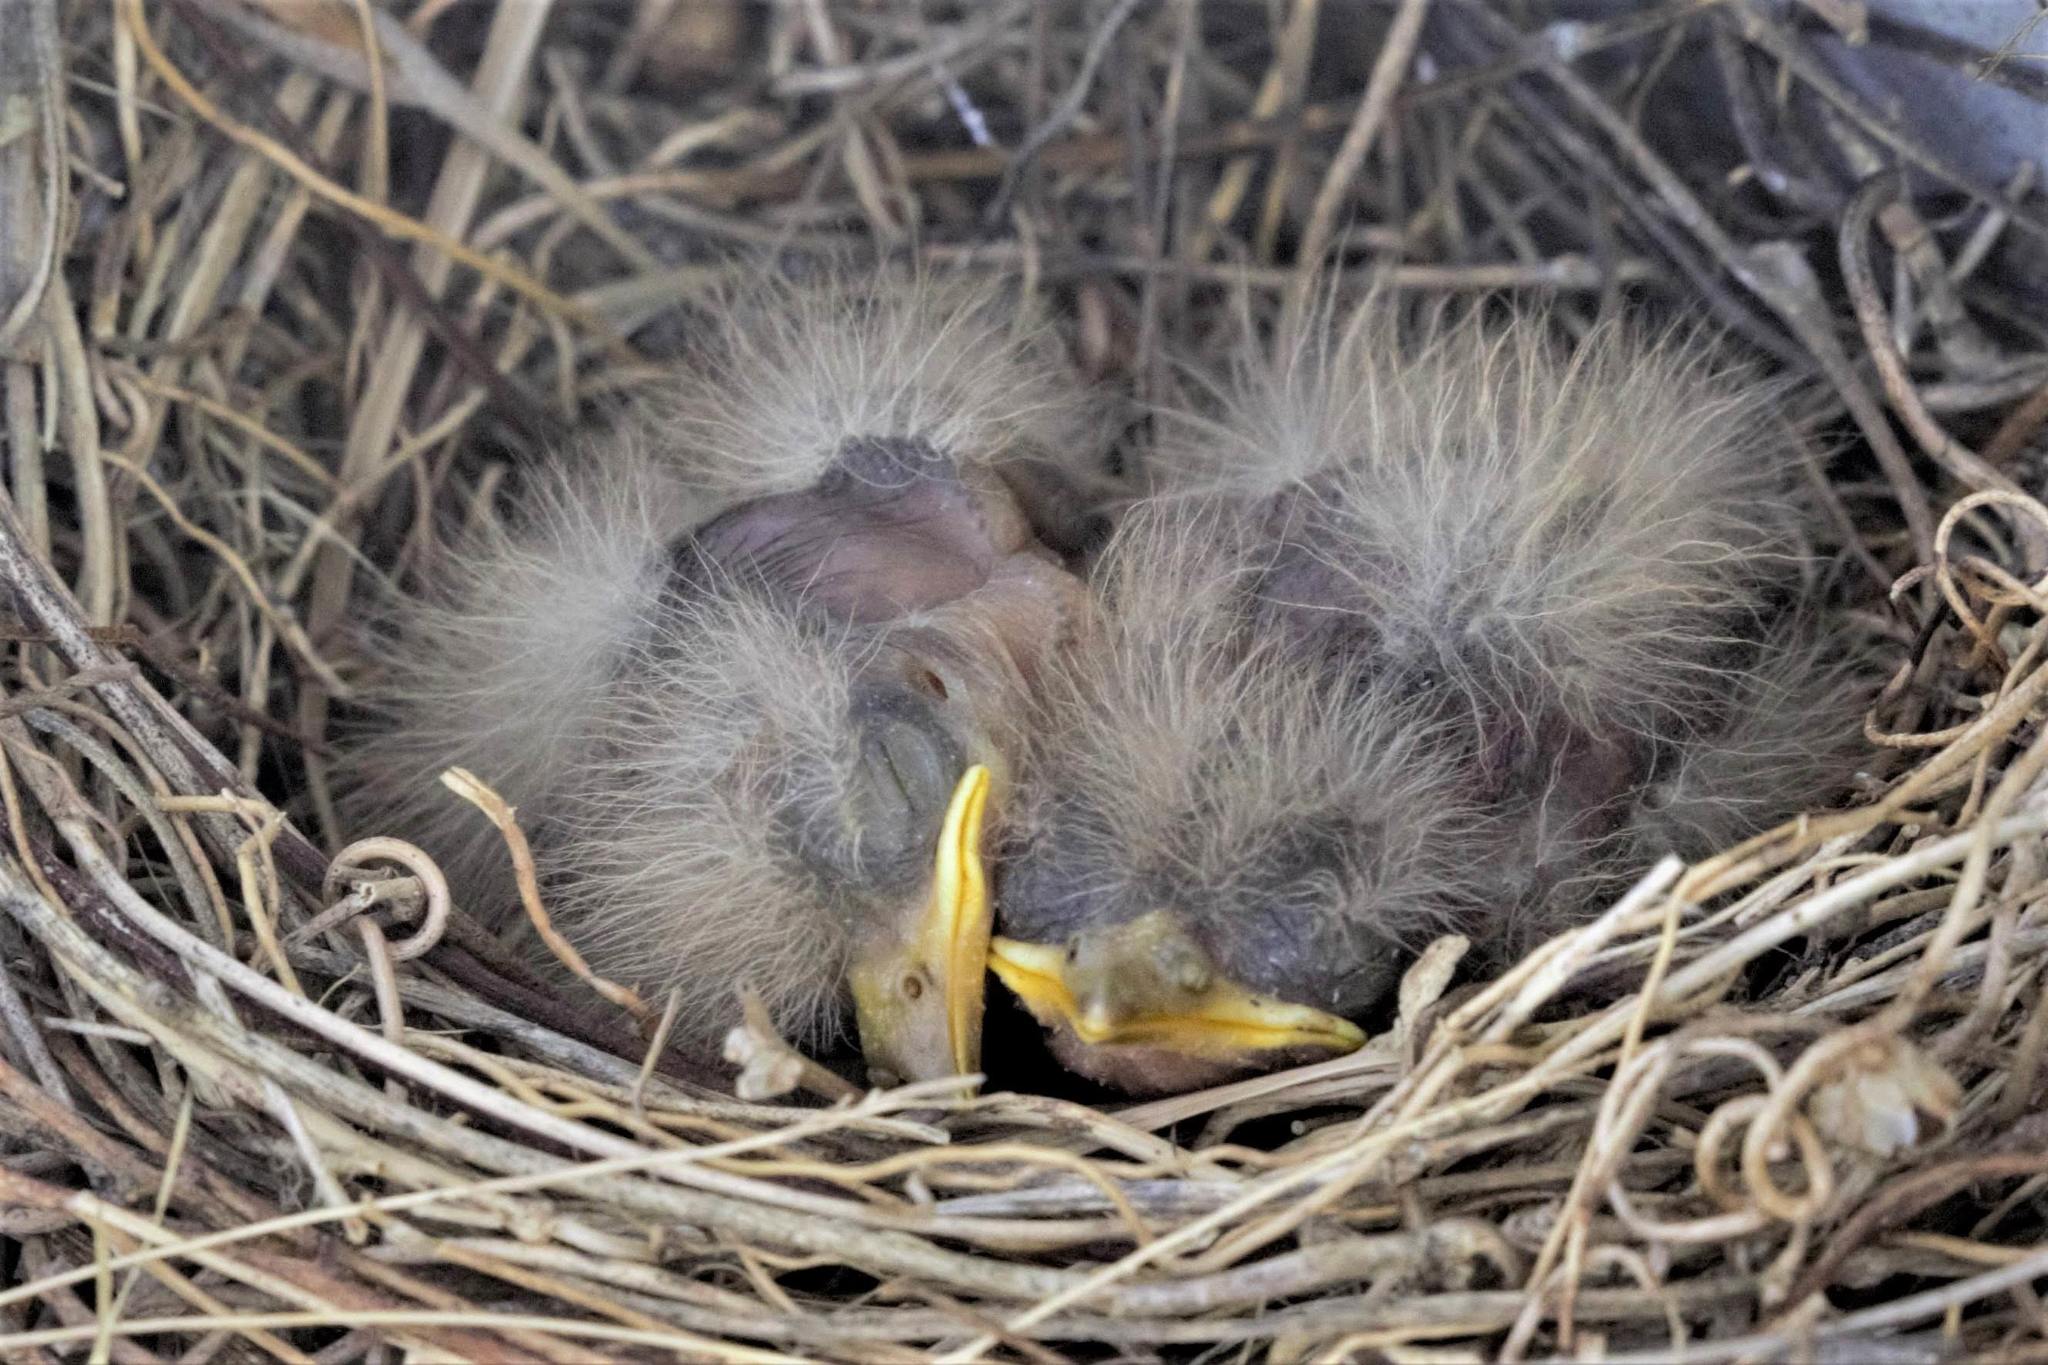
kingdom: Animalia
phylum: Chordata
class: Aves
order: Passeriformes
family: Tyrannidae
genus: Tyrannus
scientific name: Tyrannus melancholicus
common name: Tropical kingbird
